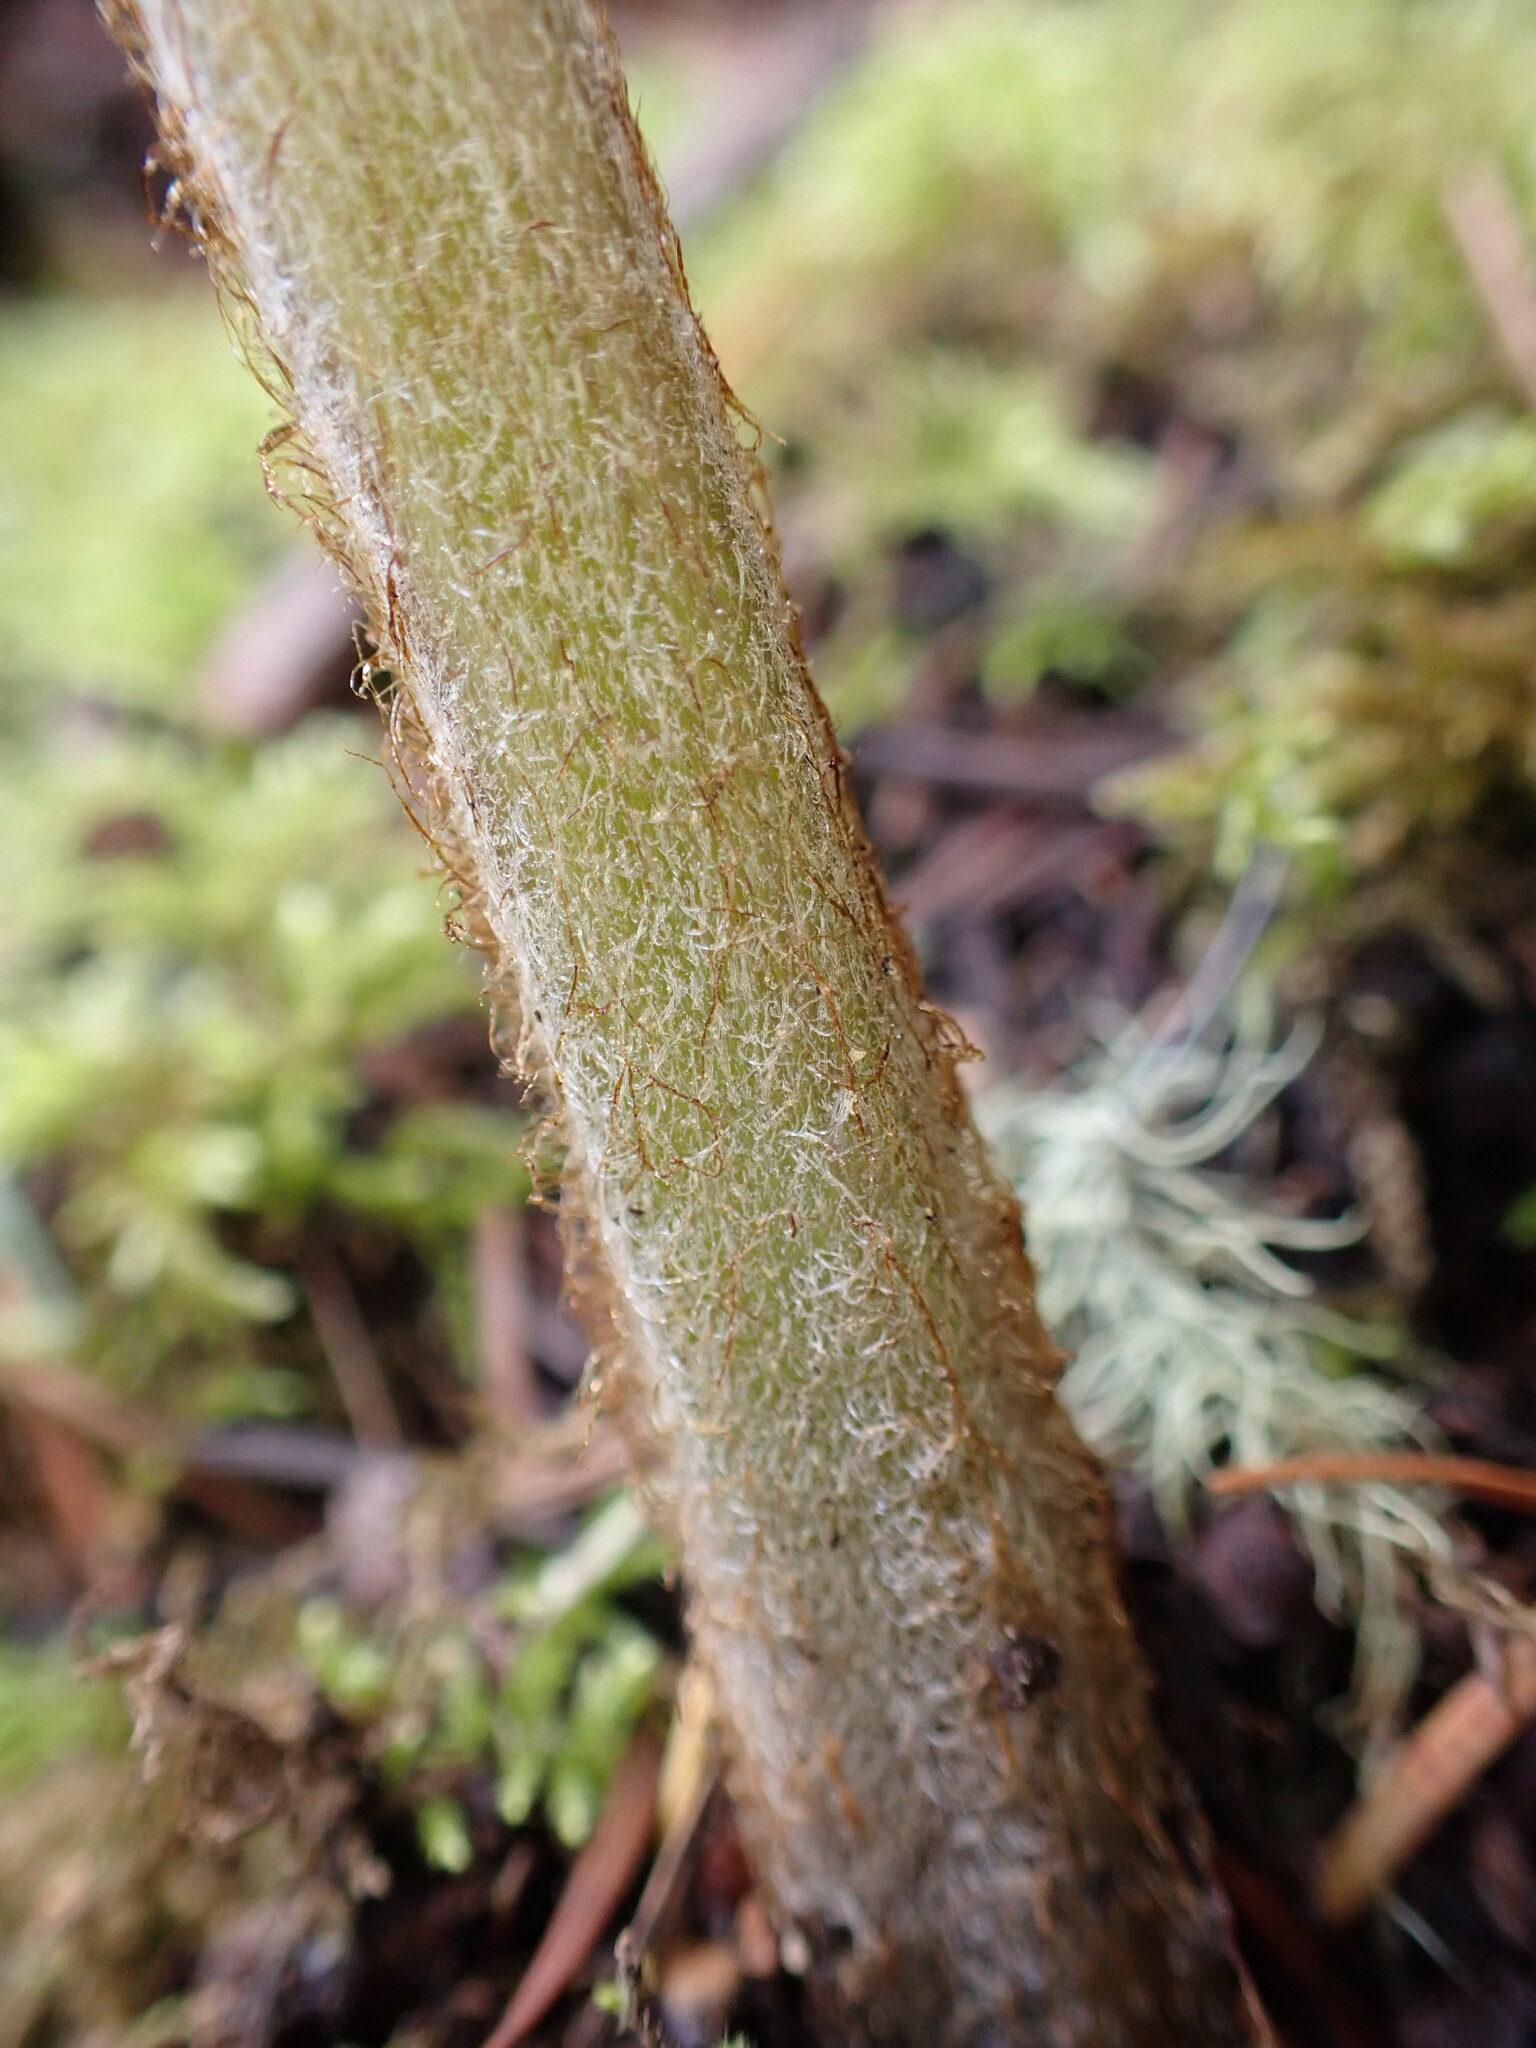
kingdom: Plantae
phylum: Tracheophyta
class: Polypodiopsida
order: Polypodiales
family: Dennstaedtiaceae
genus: Pteridium
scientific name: Pteridium aquilinum
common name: Bracken
